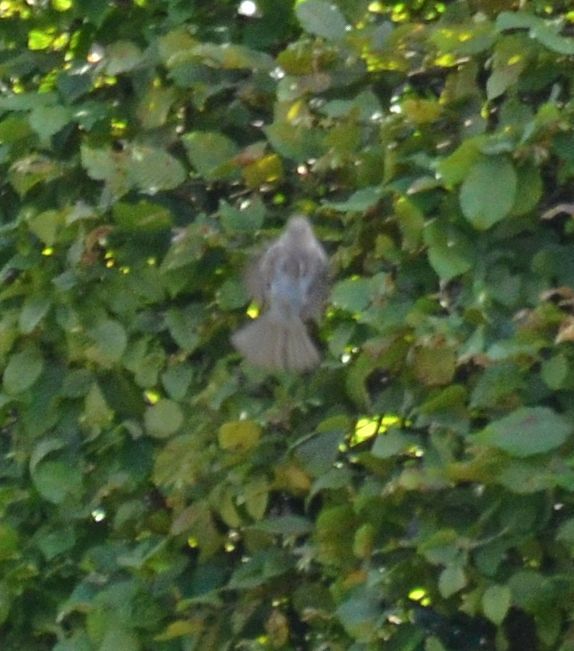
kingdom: Animalia
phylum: Chordata
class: Aves
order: Passeriformes
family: Passeridae
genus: Passer
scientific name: Passer domesticus
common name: House sparrow
